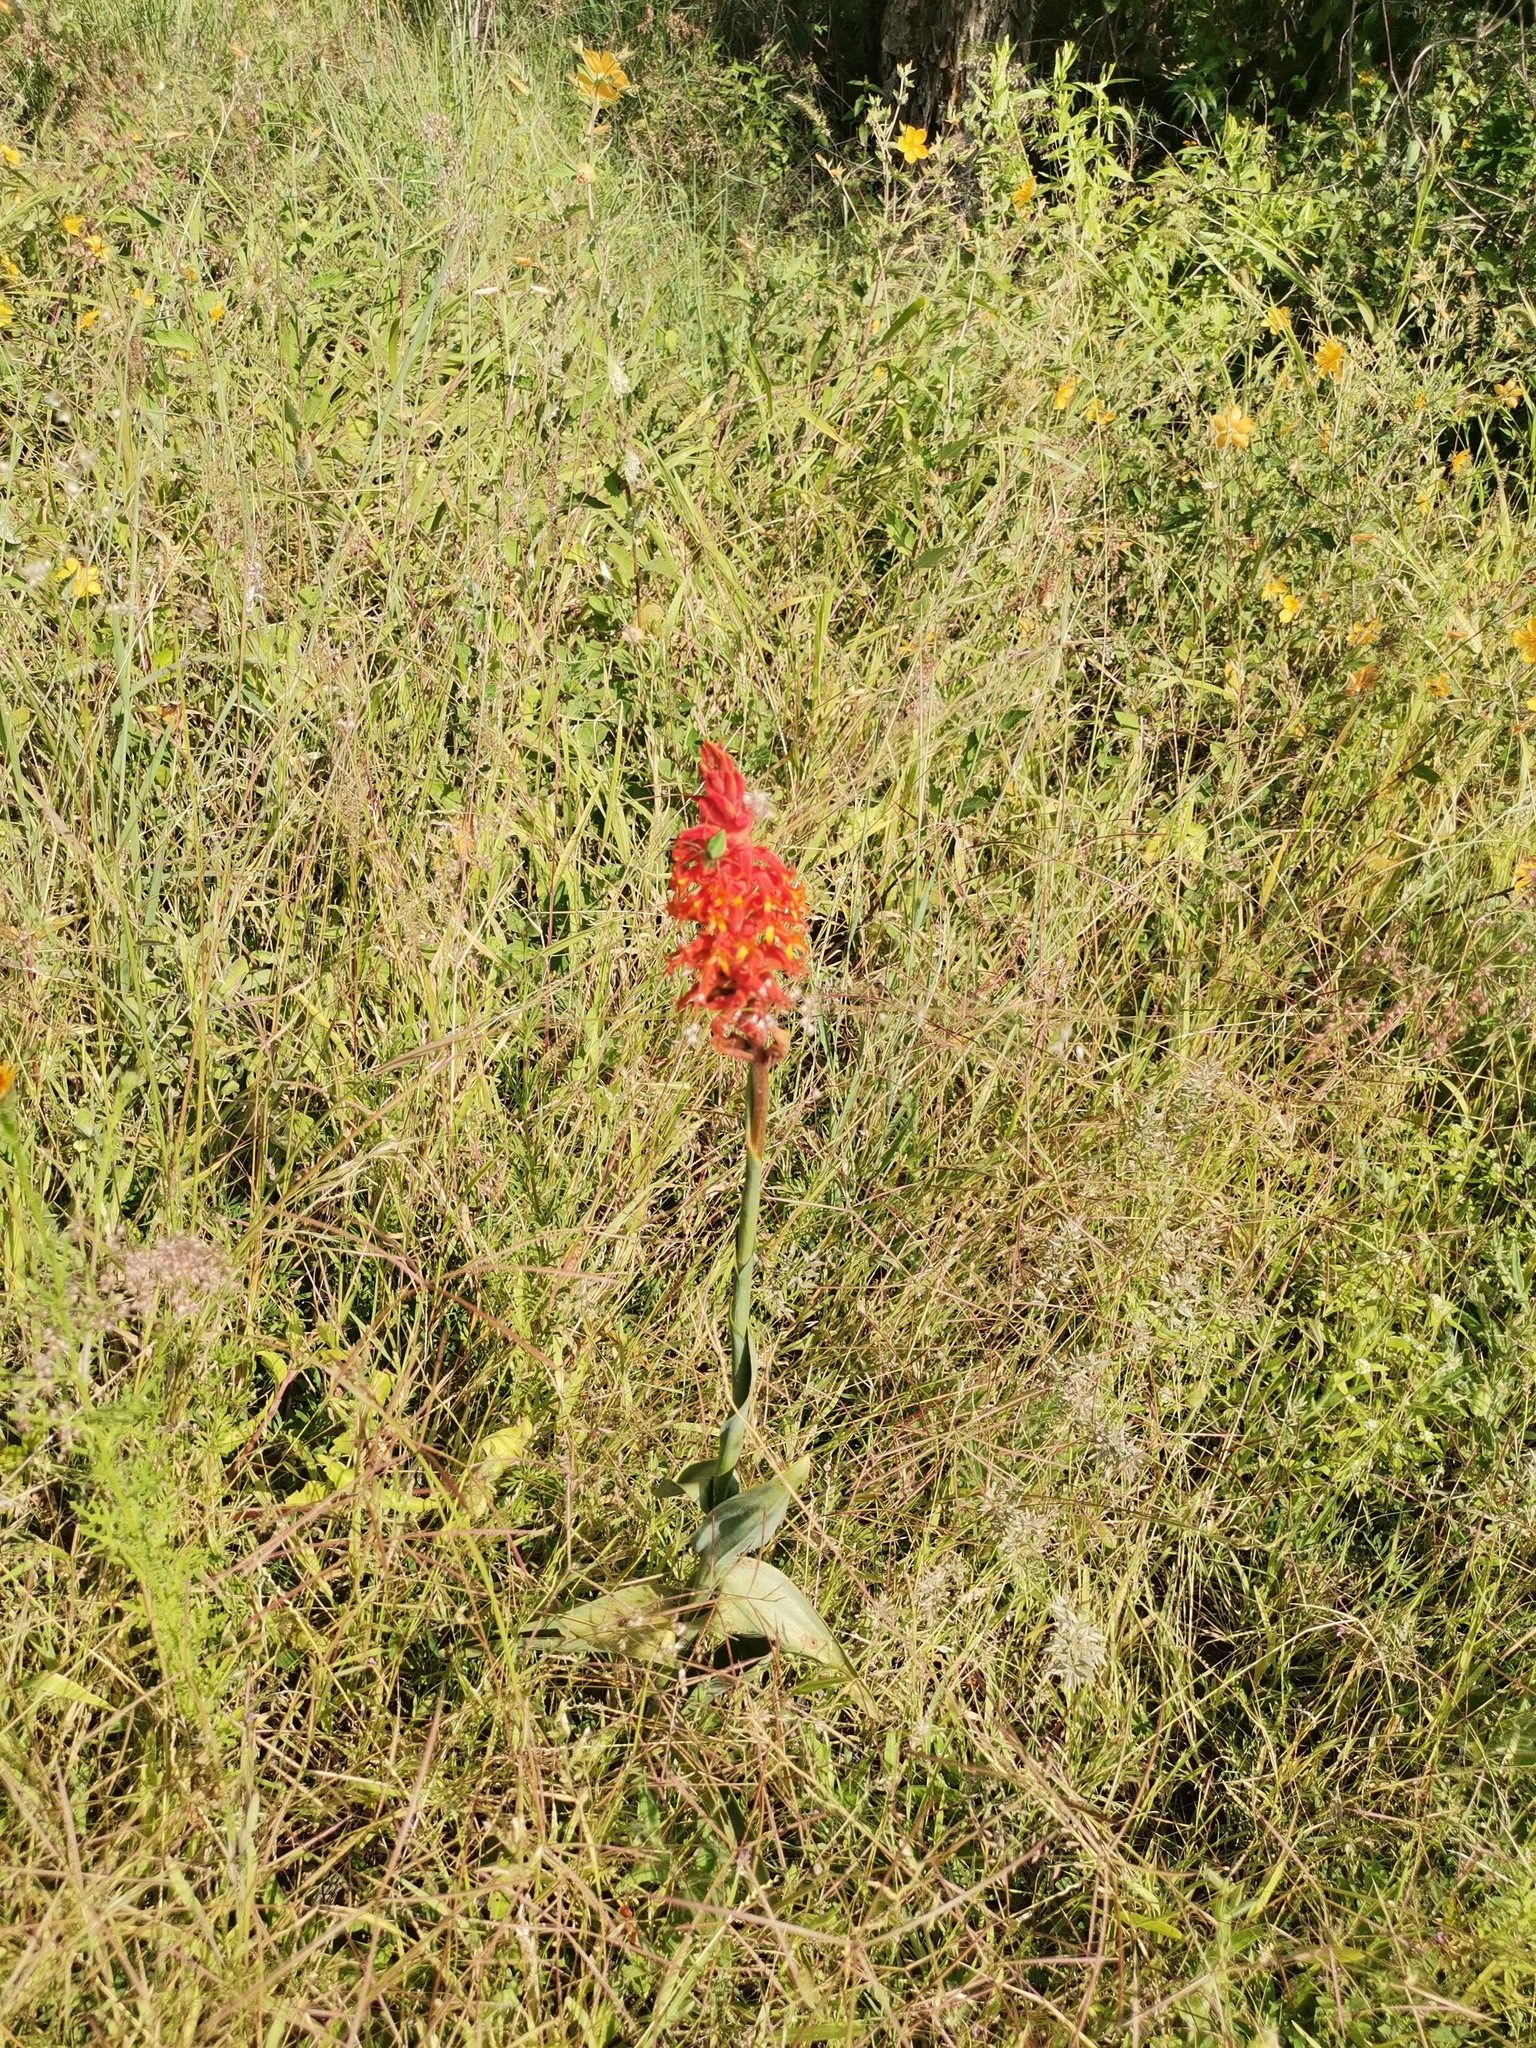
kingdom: Plantae
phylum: Tracheophyta
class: Liliopsida
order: Asparagales
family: Orchidaceae
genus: Dichromanthus
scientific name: Dichromanthus cinnabarinus
